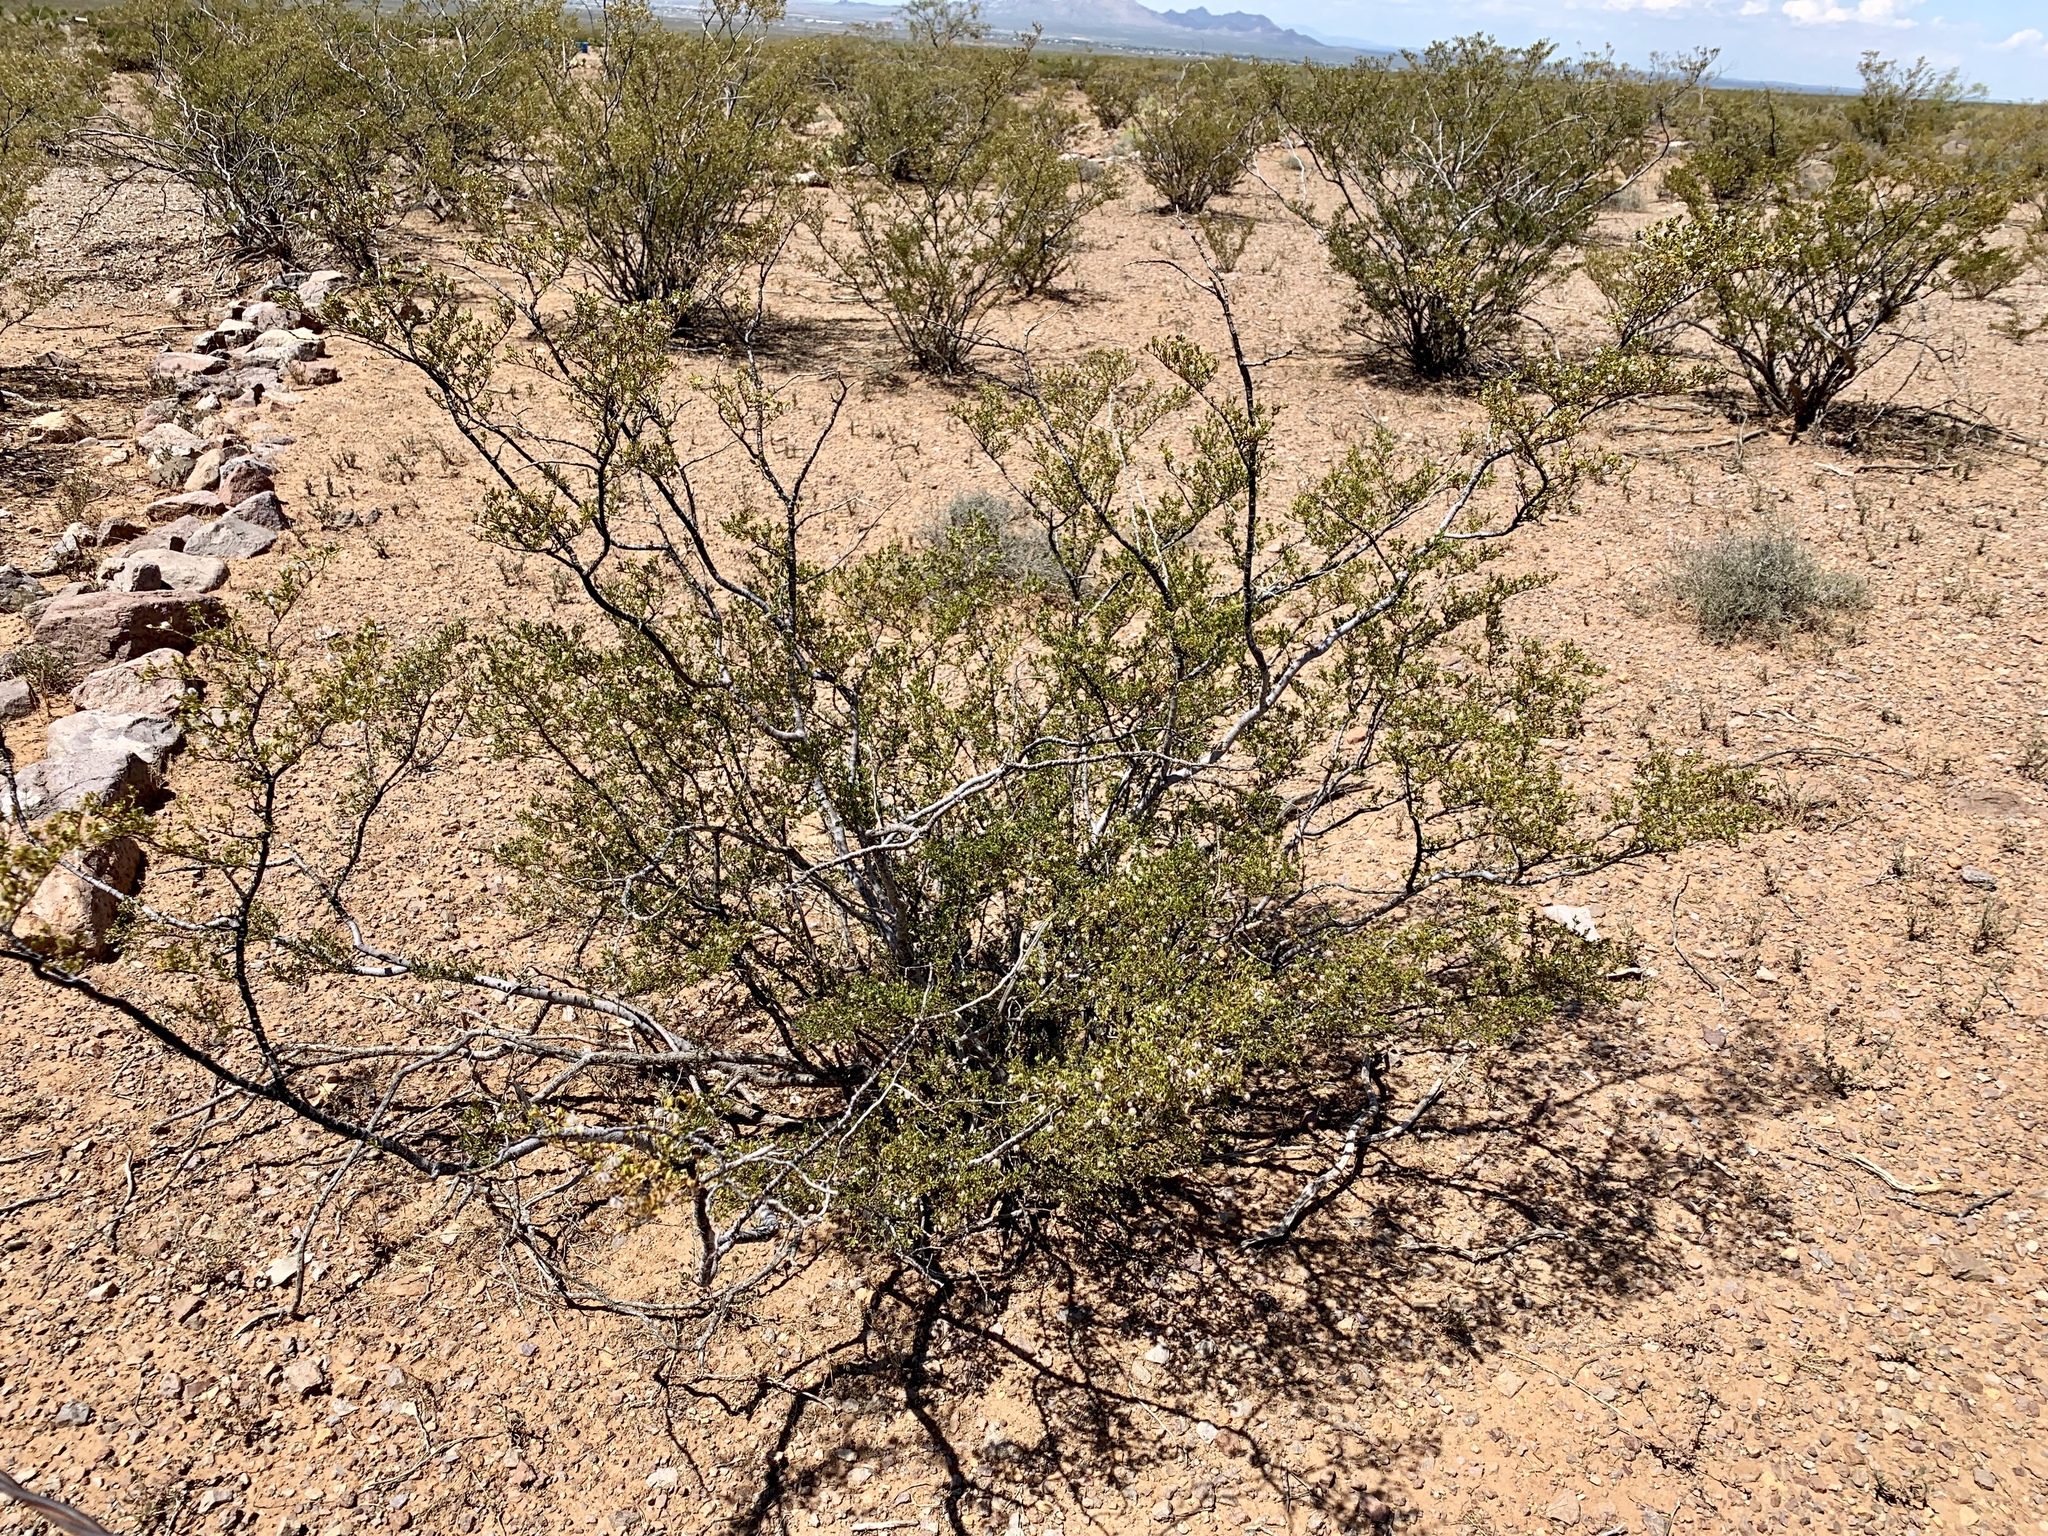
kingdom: Plantae
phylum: Tracheophyta
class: Magnoliopsida
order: Zygophyllales
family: Zygophyllaceae
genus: Larrea
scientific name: Larrea tridentata
